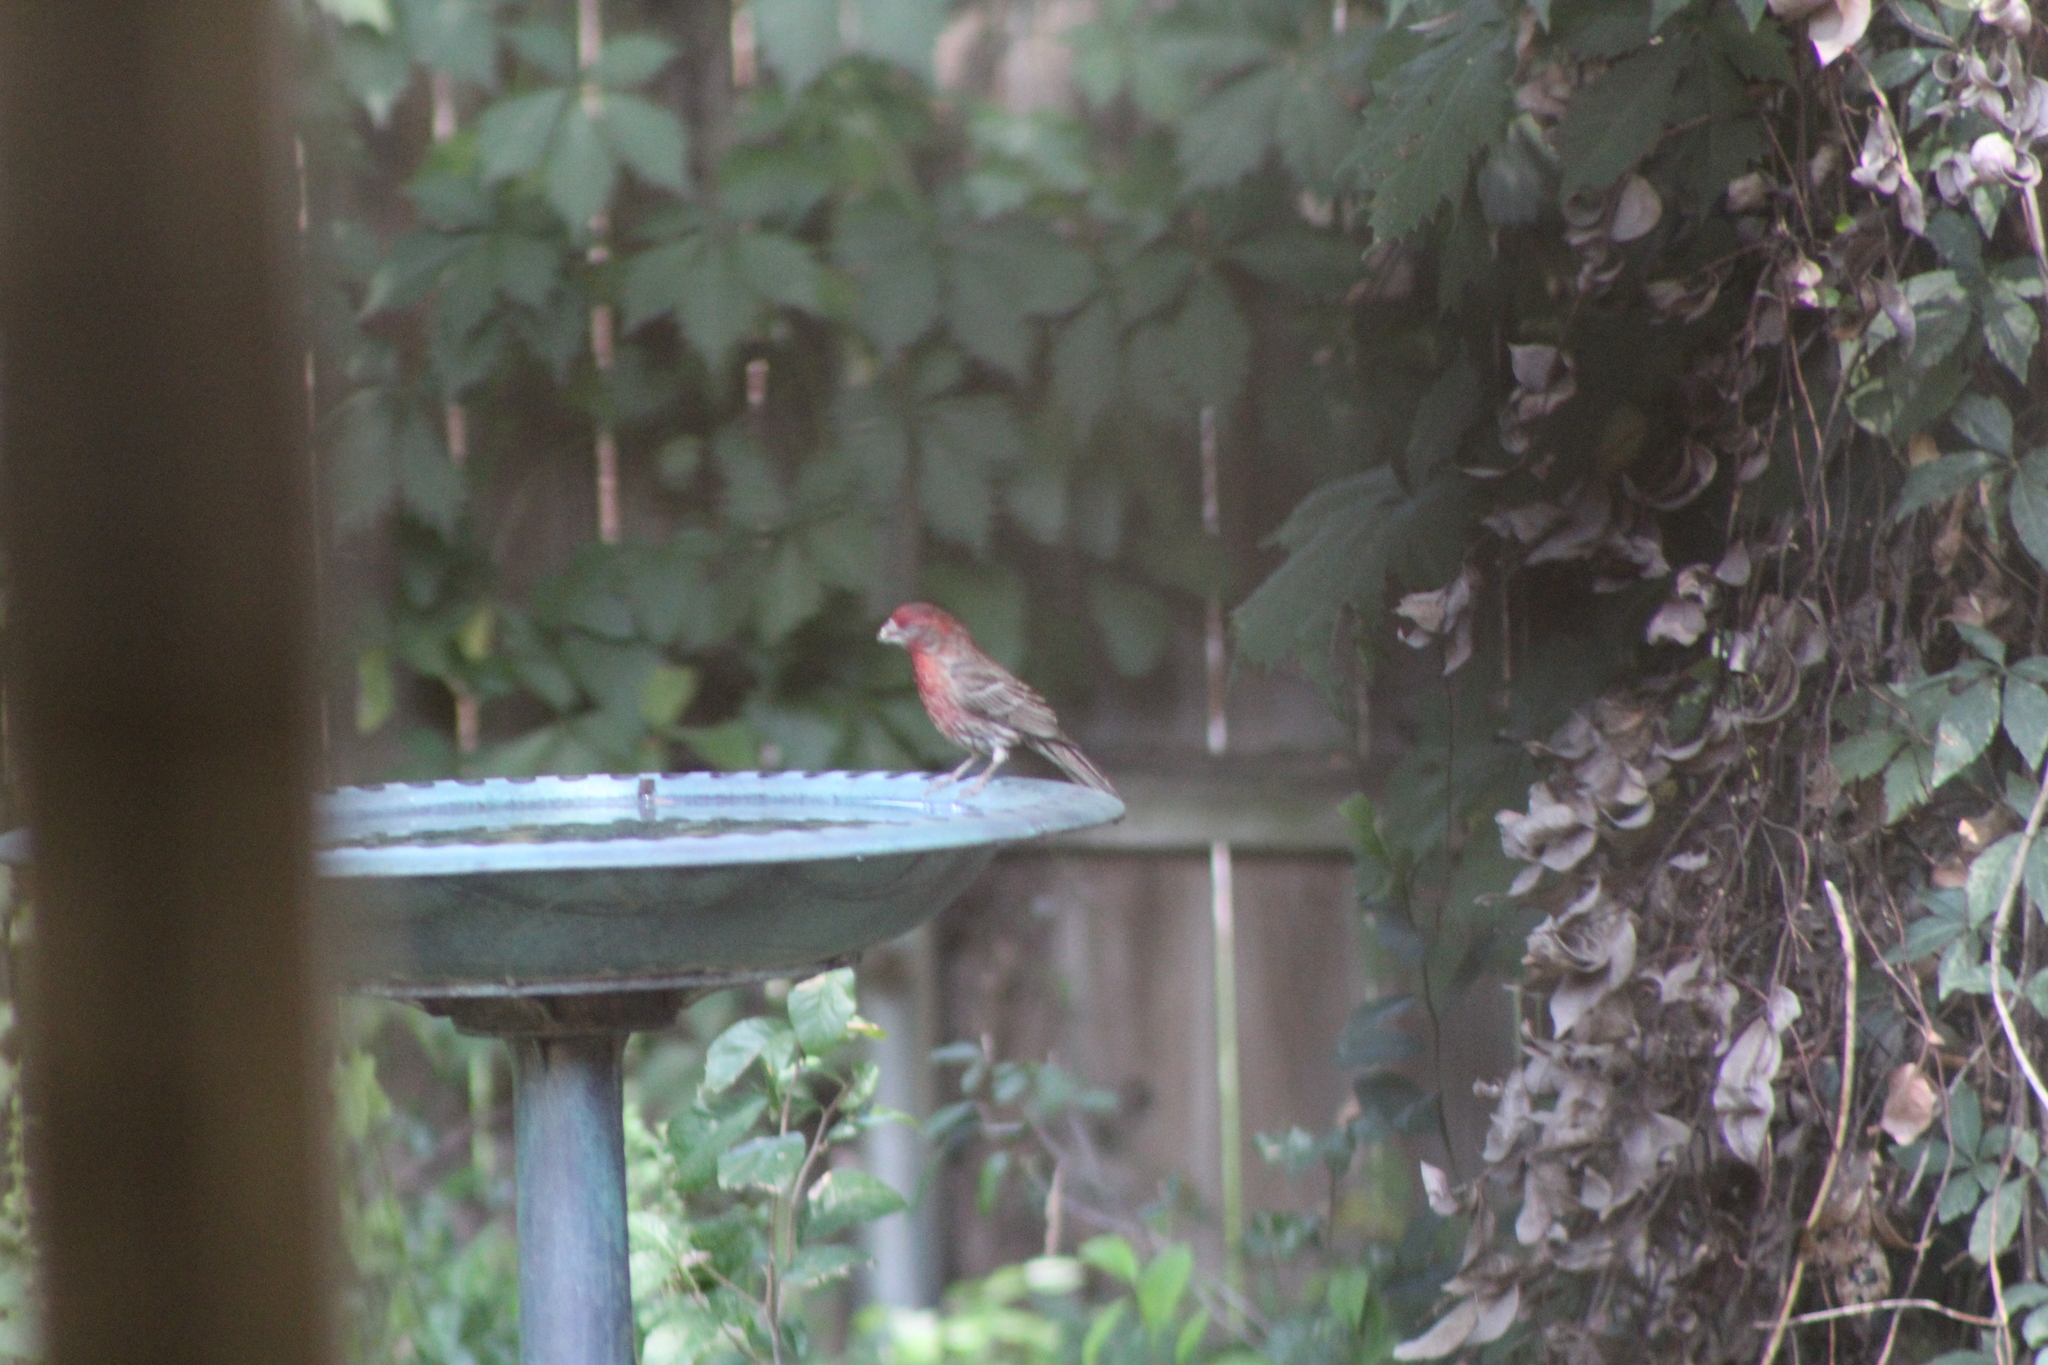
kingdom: Animalia
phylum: Chordata
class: Aves
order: Passeriformes
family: Fringillidae
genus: Haemorhous
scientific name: Haemorhous mexicanus
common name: House finch
